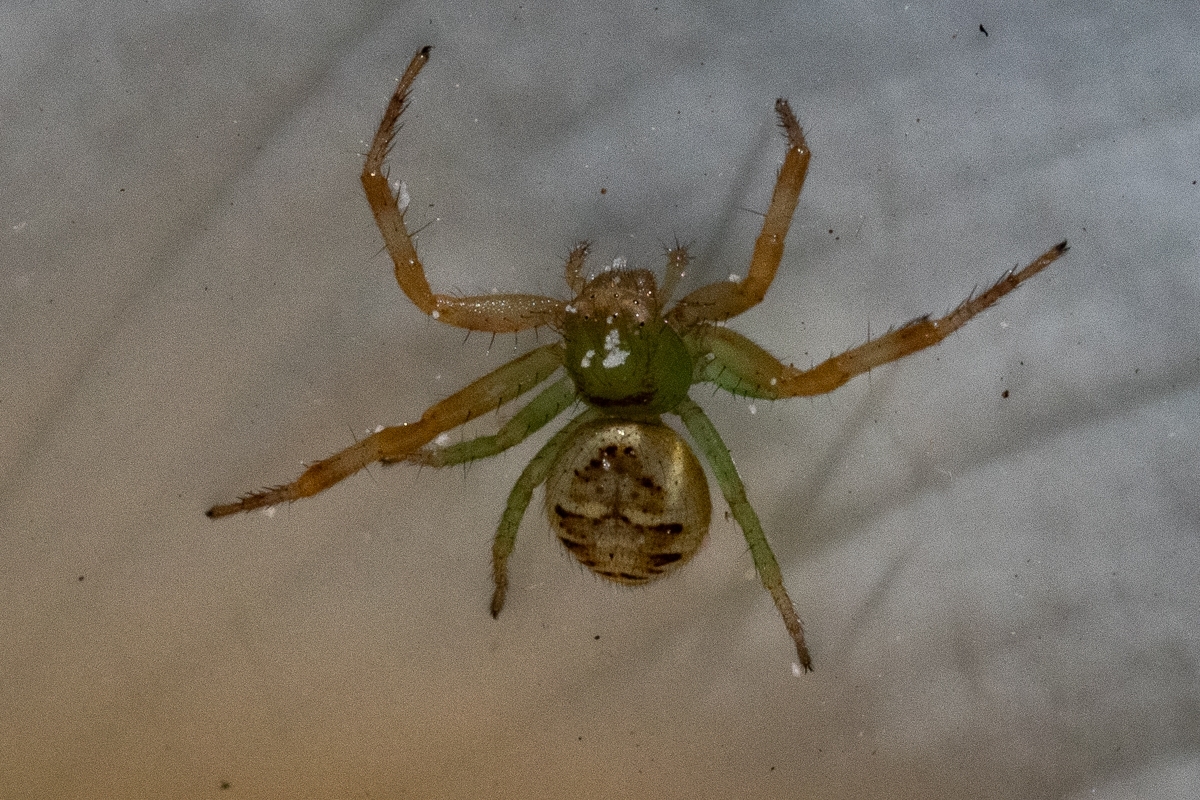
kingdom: Animalia
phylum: Arthropoda
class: Arachnida
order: Araneae
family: Thomisidae
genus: Synema
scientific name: Synema imitatrix
